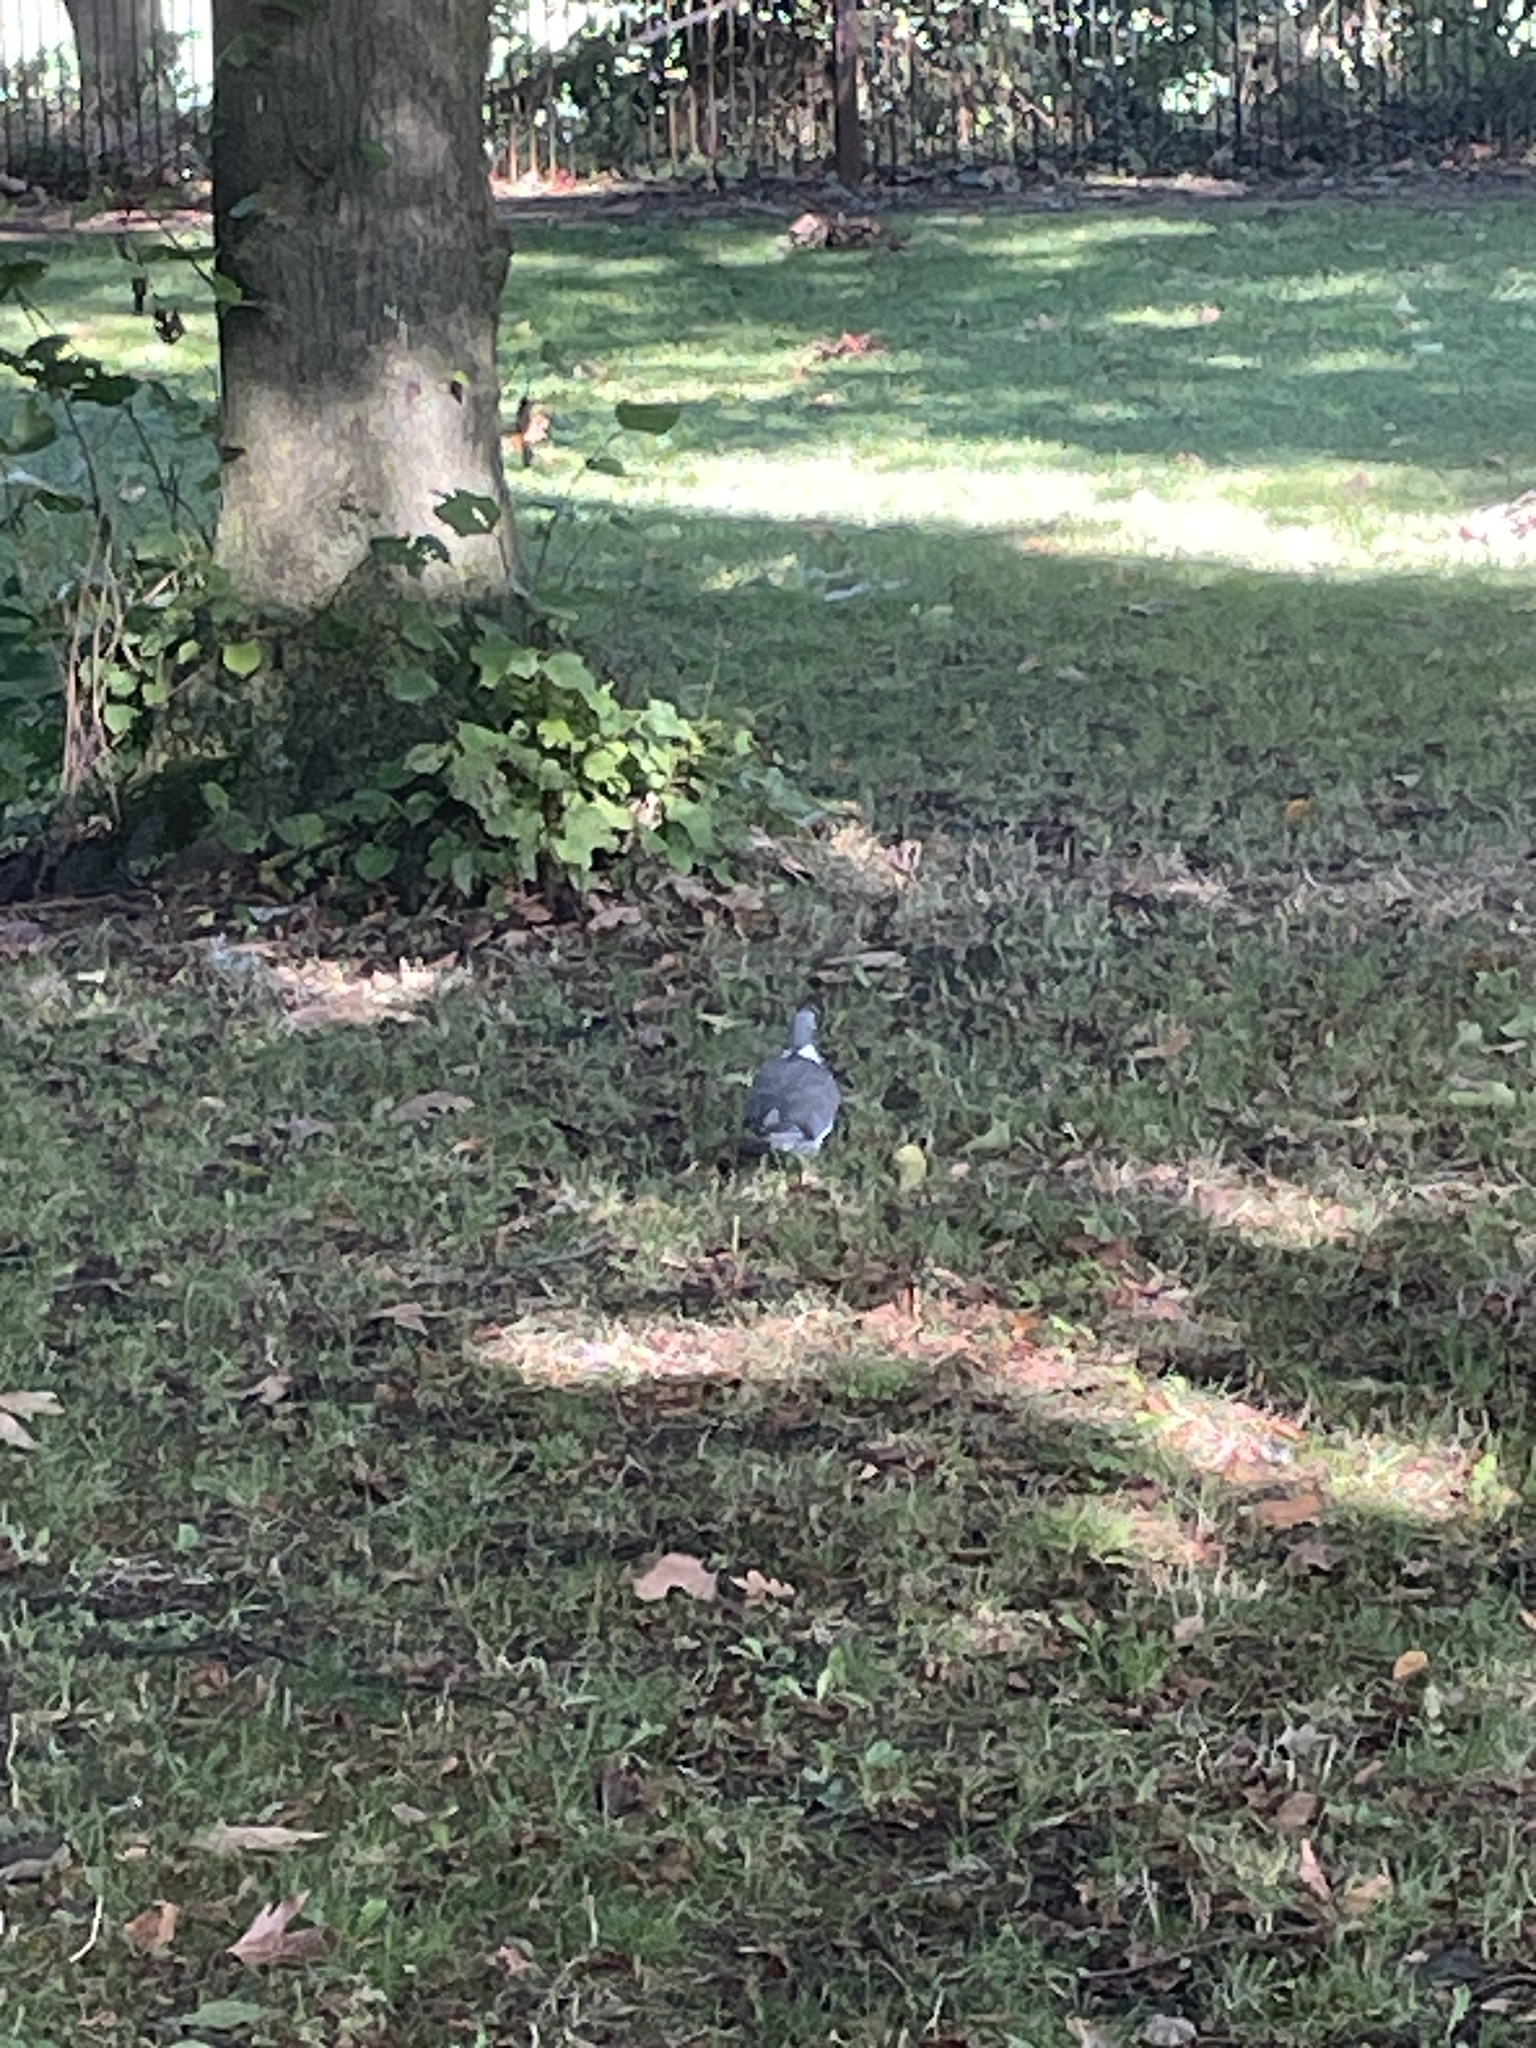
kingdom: Animalia
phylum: Chordata
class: Aves
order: Columbiformes
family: Columbidae
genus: Columba
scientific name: Columba palumbus
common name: Common wood pigeon
